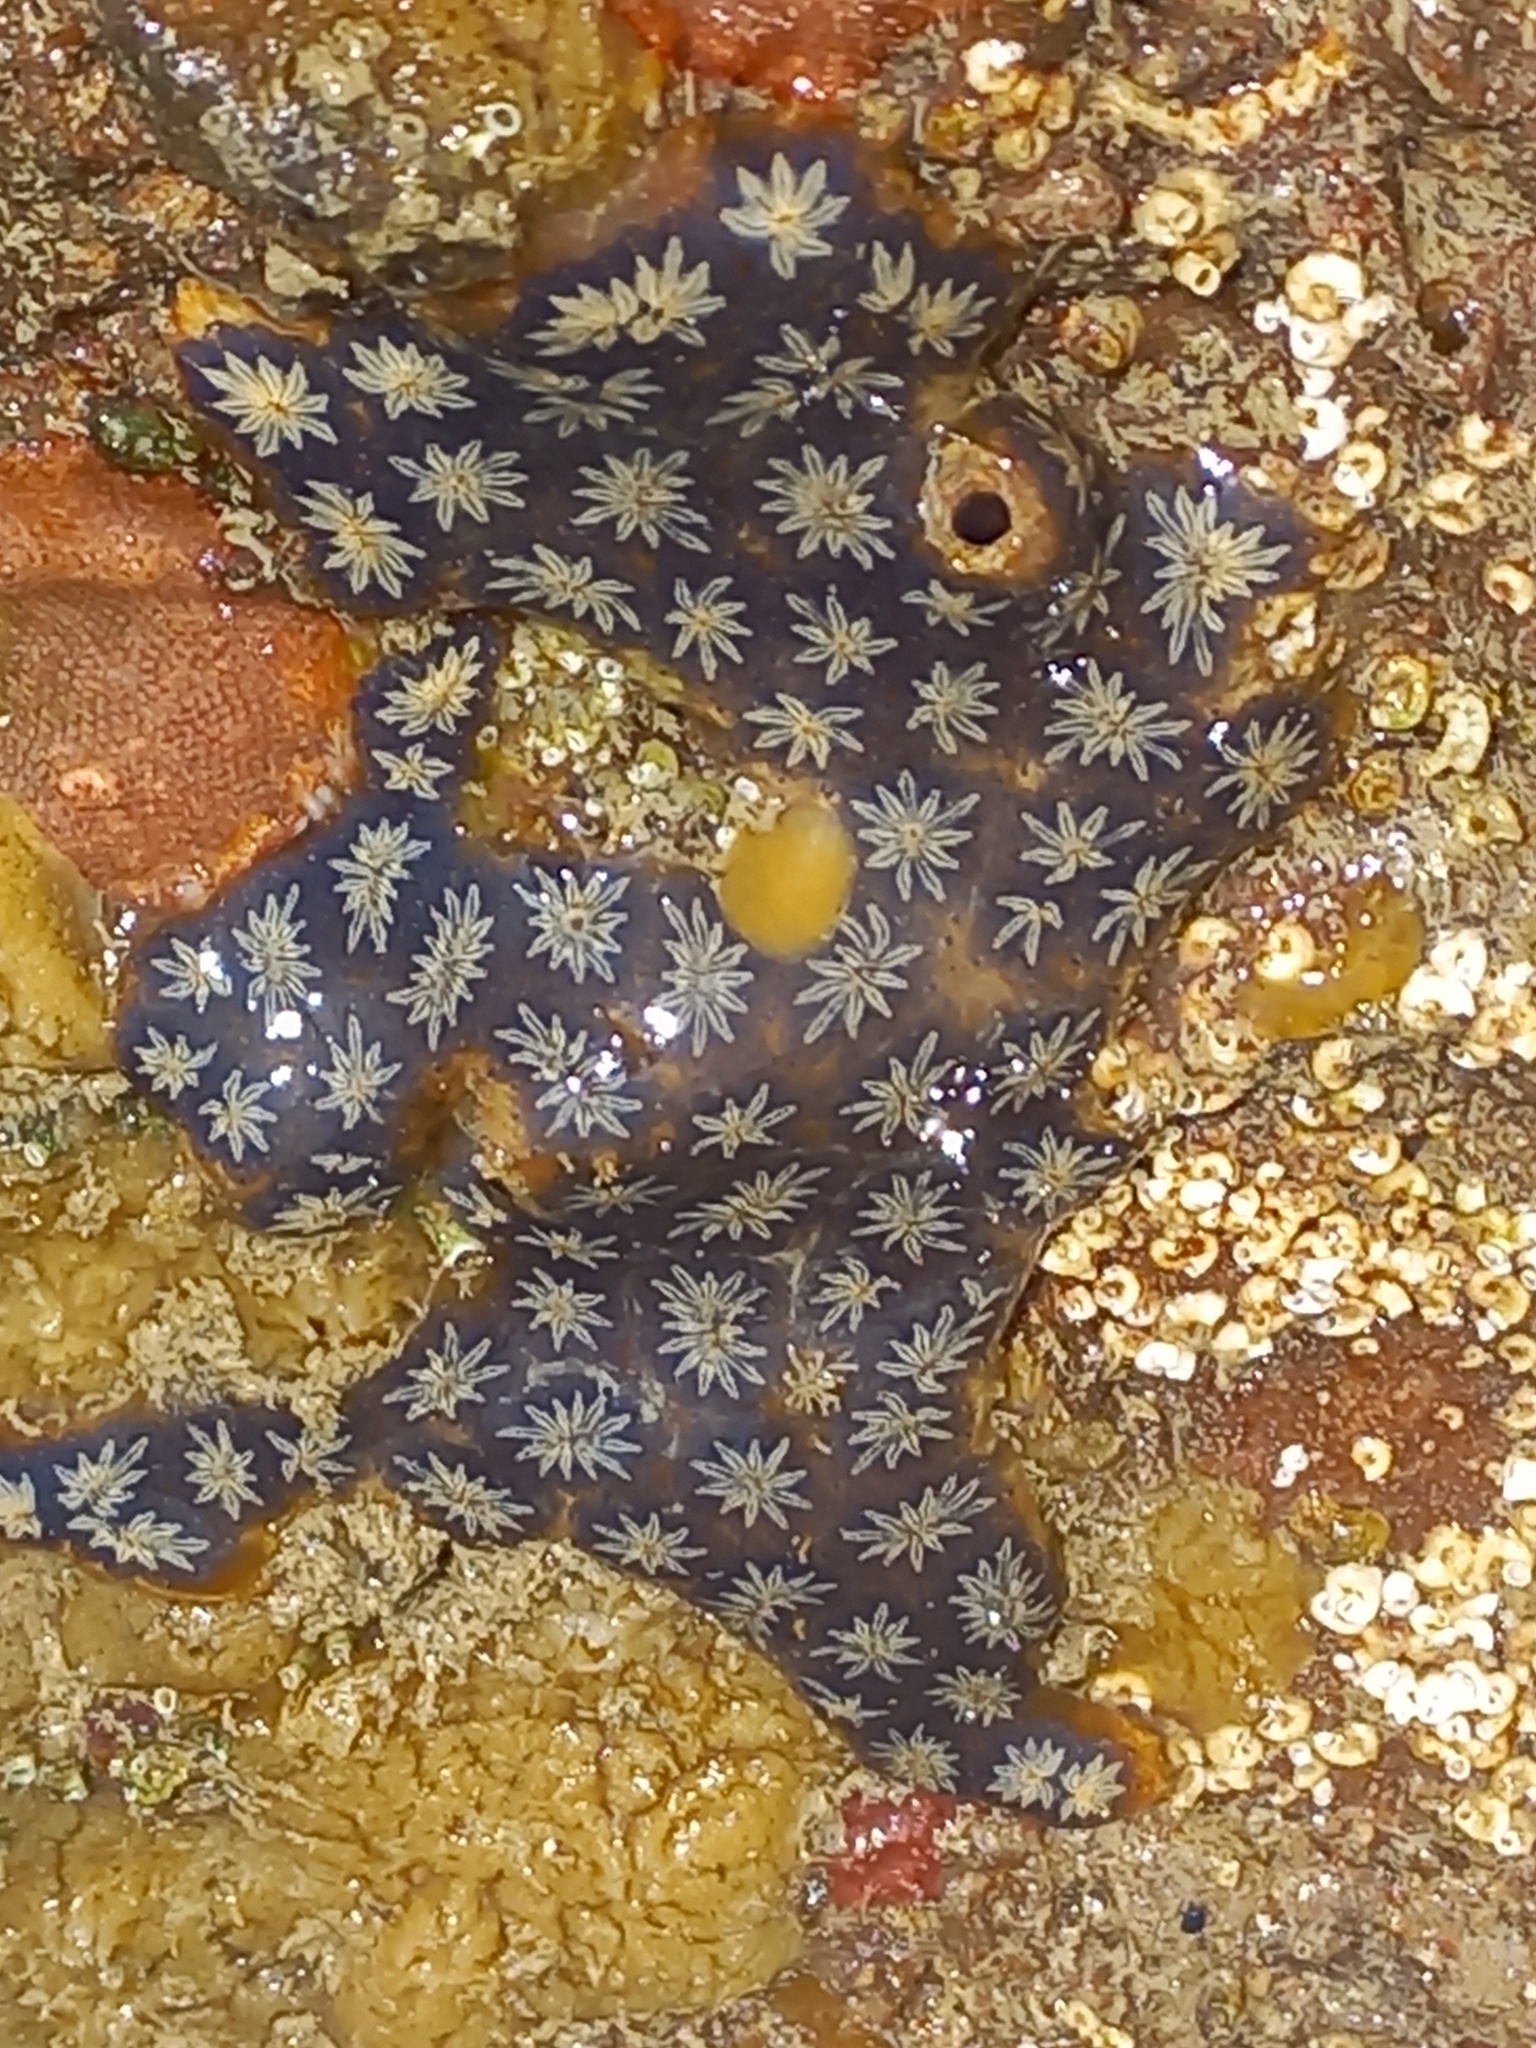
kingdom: Animalia
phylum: Chordata
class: Ascidiacea
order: Stolidobranchia
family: Styelidae
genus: Botryllus
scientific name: Botryllus schlosseri
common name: Golden star tunicate
